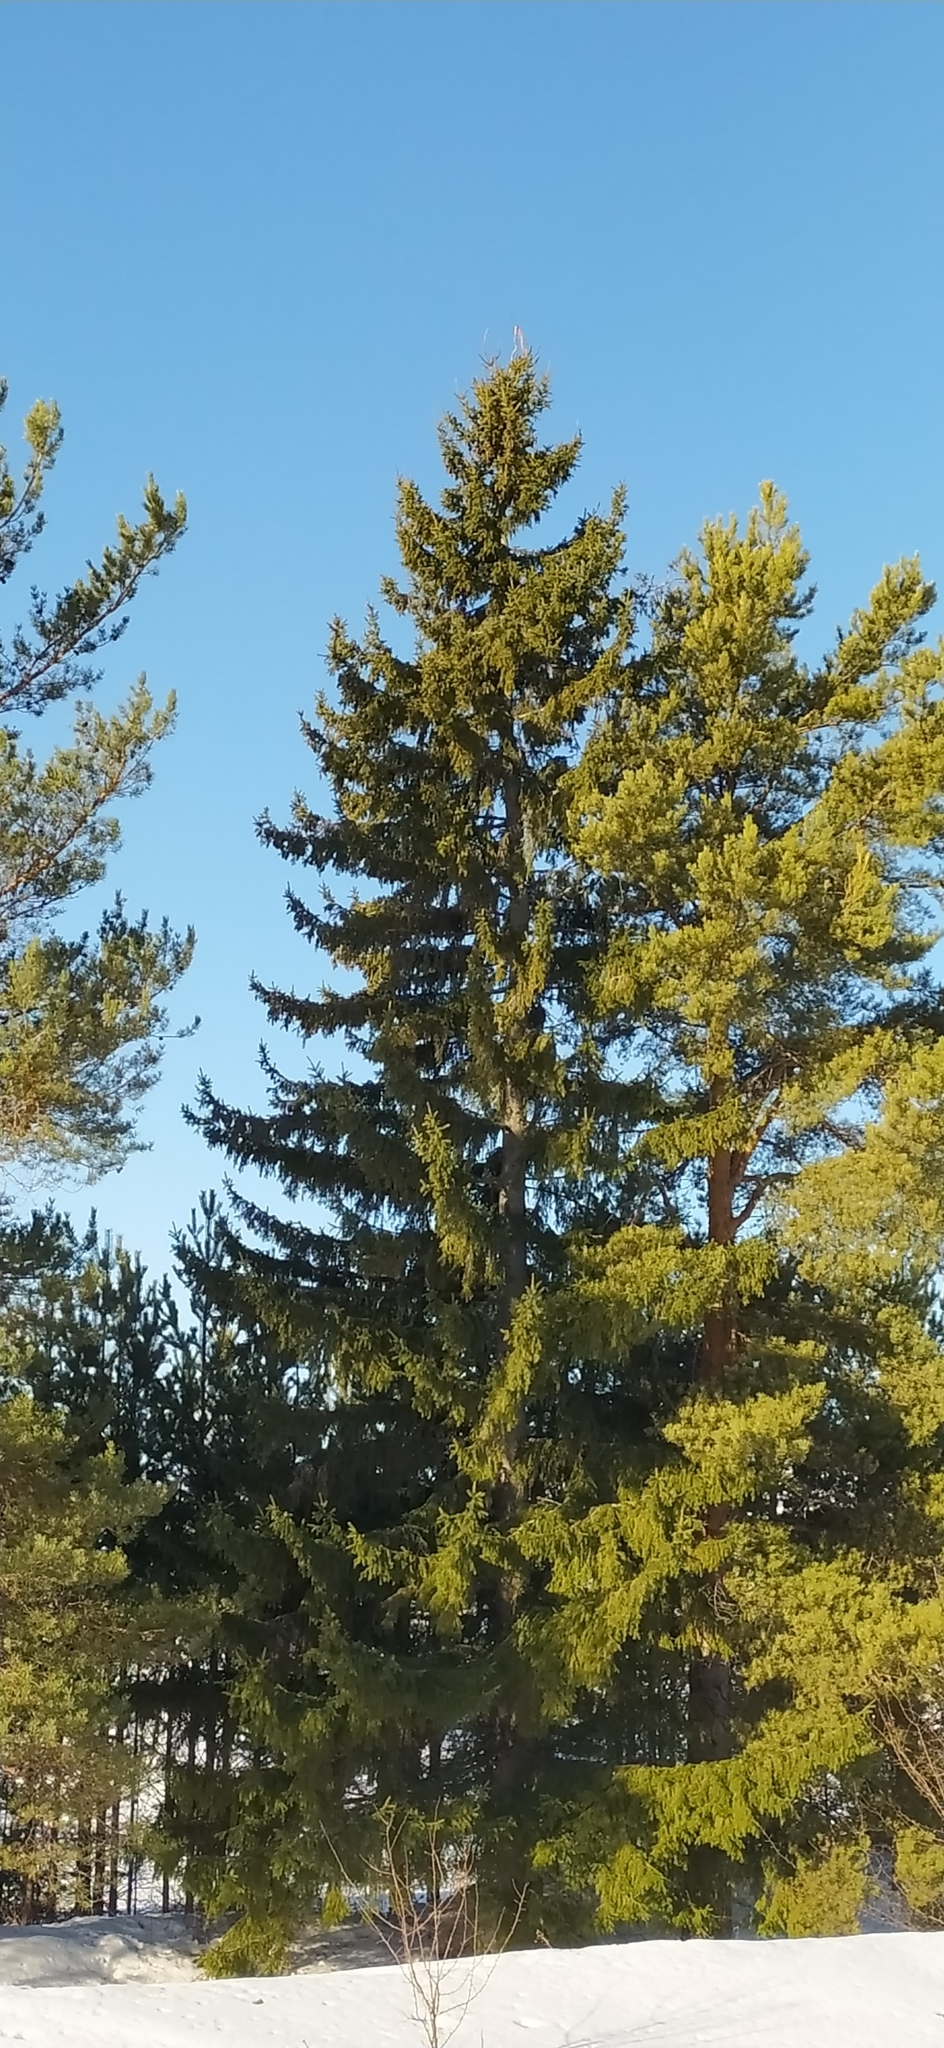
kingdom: Plantae
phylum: Tracheophyta
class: Pinopsida
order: Pinales
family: Pinaceae
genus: Picea
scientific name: Picea obovata
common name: Siberian spruce
